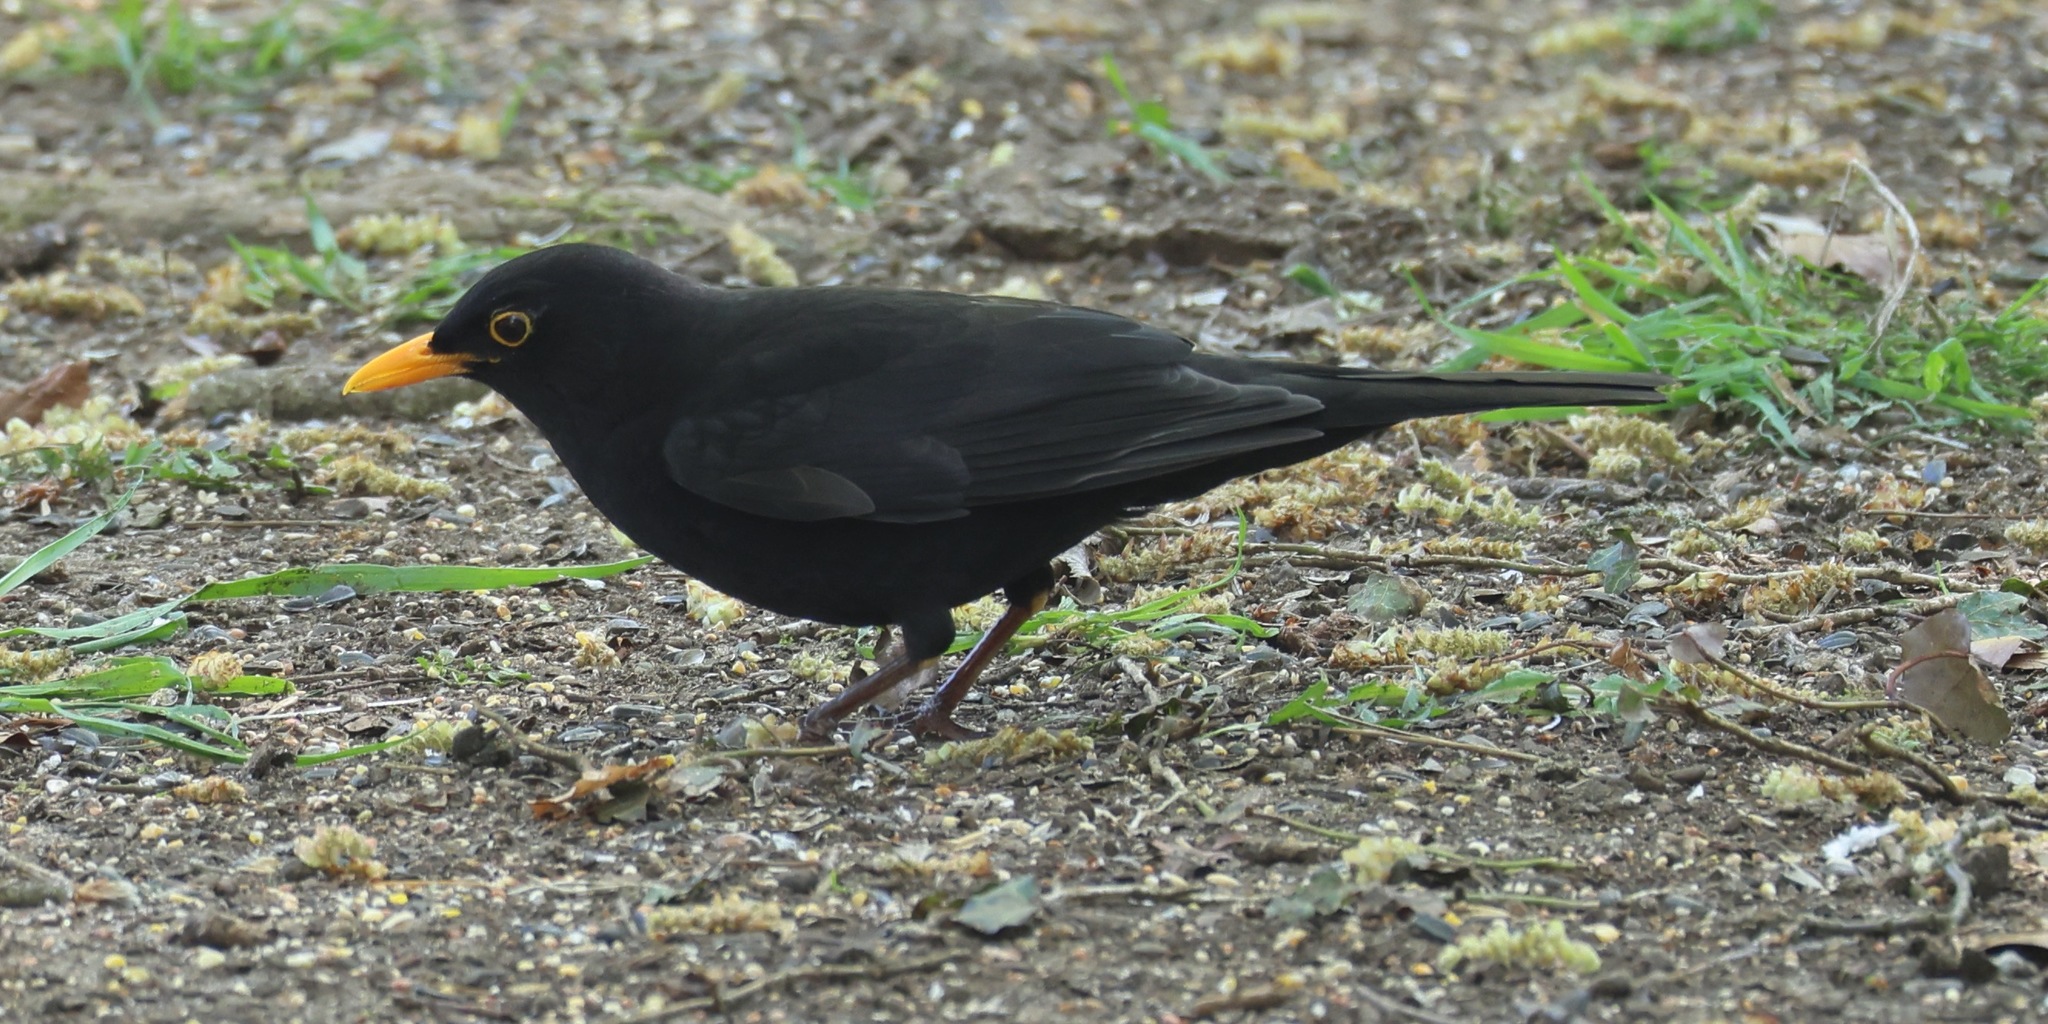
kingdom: Animalia
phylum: Chordata
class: Aves
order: Passeriformes
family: Turdidae
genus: Turdus
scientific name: Turdus merula
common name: Common blackbird
